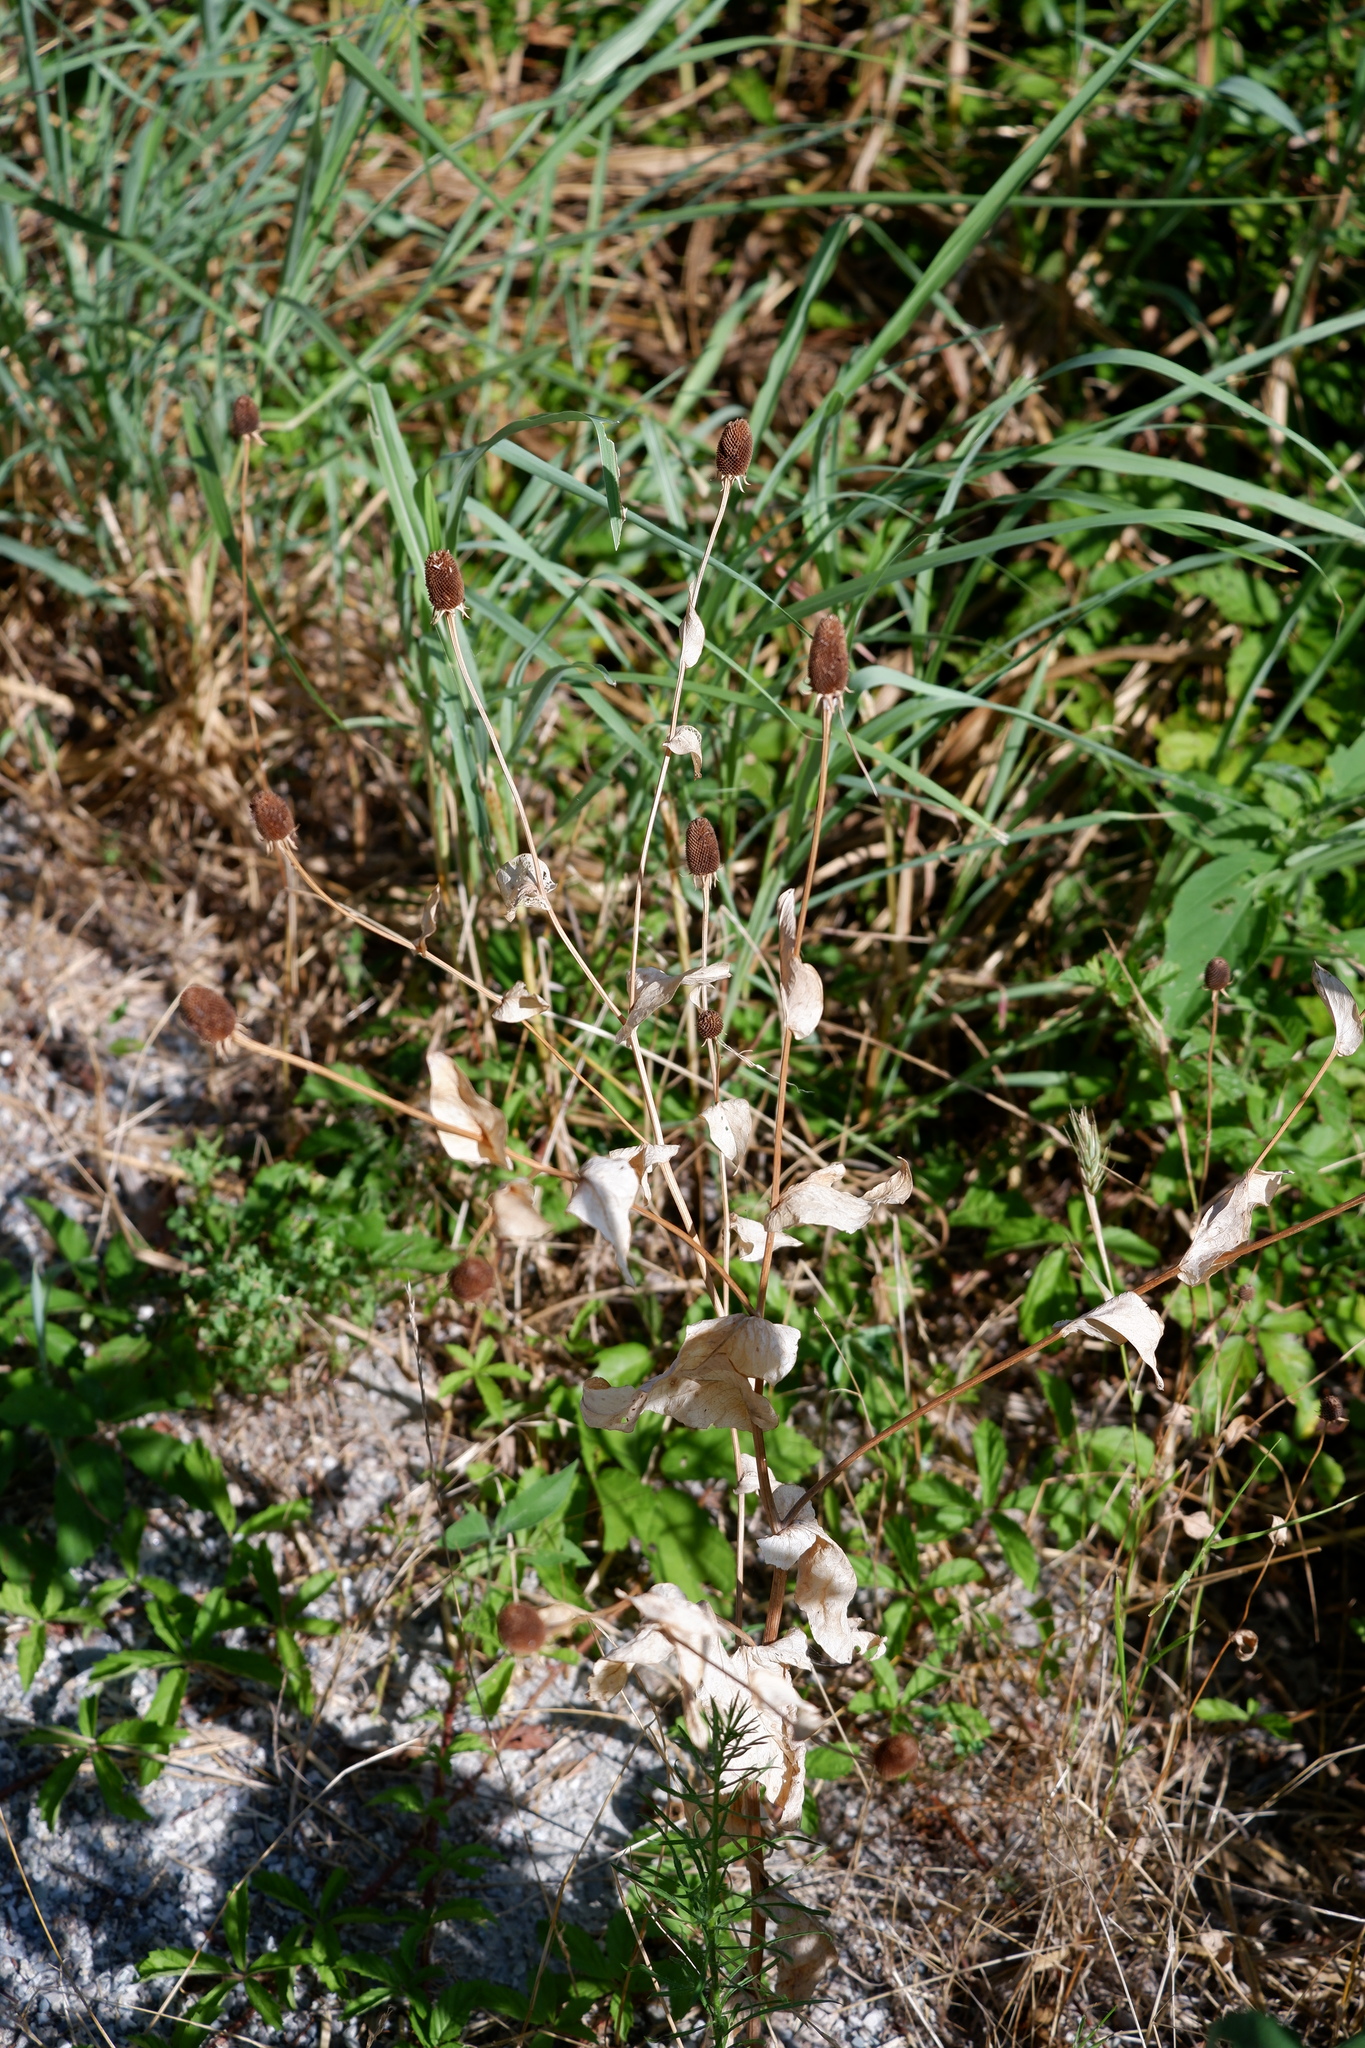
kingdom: Plantae
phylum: Tracheophyta
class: Magnoliopsida
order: Asterales
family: Asteraceae
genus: Rudbeckia
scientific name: Rudbeckia amplexicaulis
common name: Clasping-leaf coneflower
